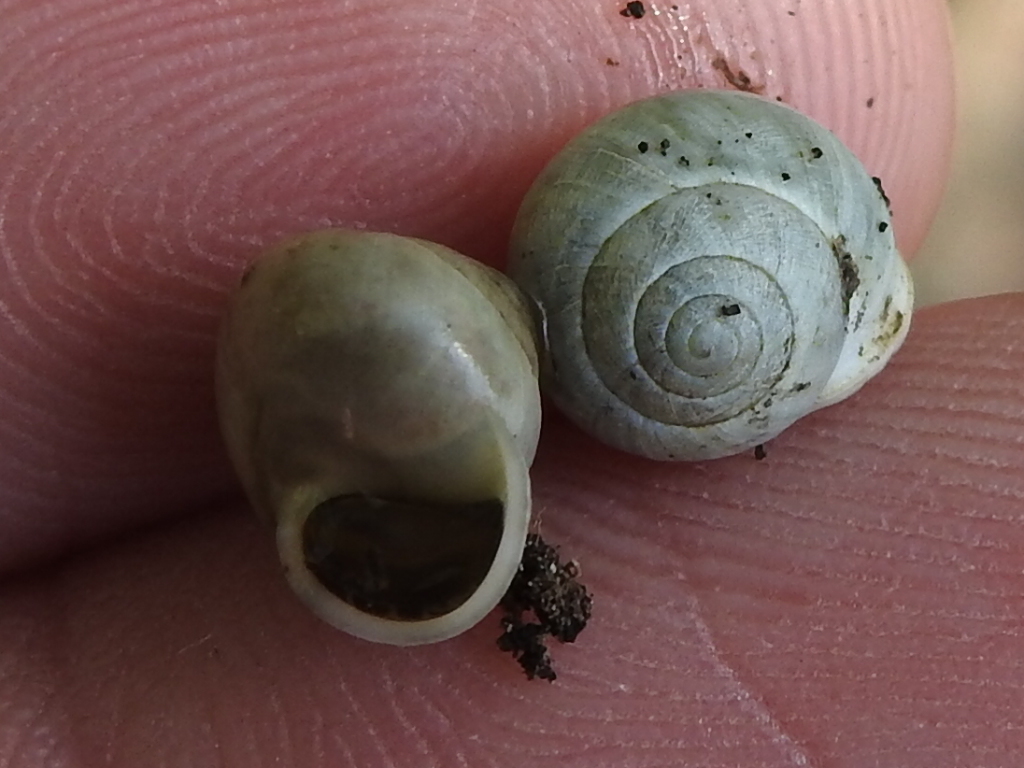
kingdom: Animalia
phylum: Mollusca
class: Gastropoda
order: Cycloneritida
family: Helicinidae
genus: Helicina
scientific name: Helicina orbiculata
